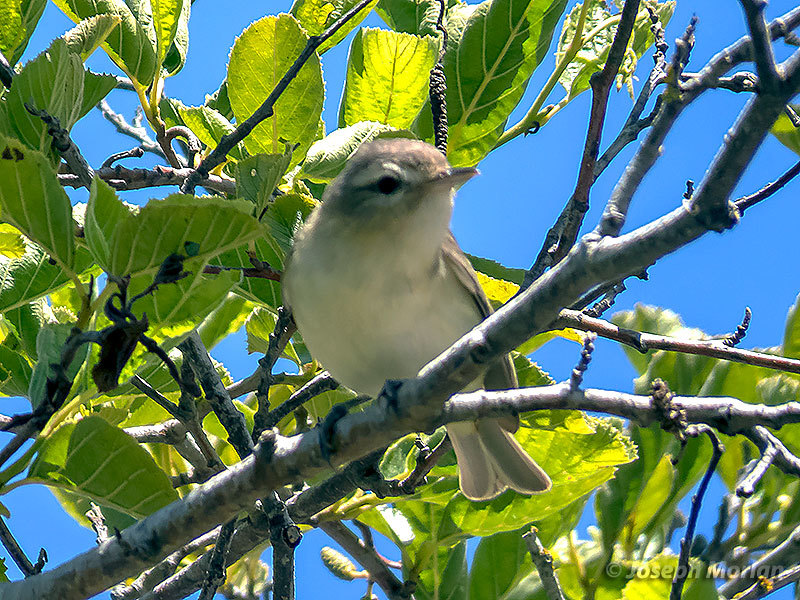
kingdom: Animalia
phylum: Chordata
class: Aves
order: Passeriformes
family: Vireonidae
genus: Vireo
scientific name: Vireo gilvus
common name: Warbling vireo
